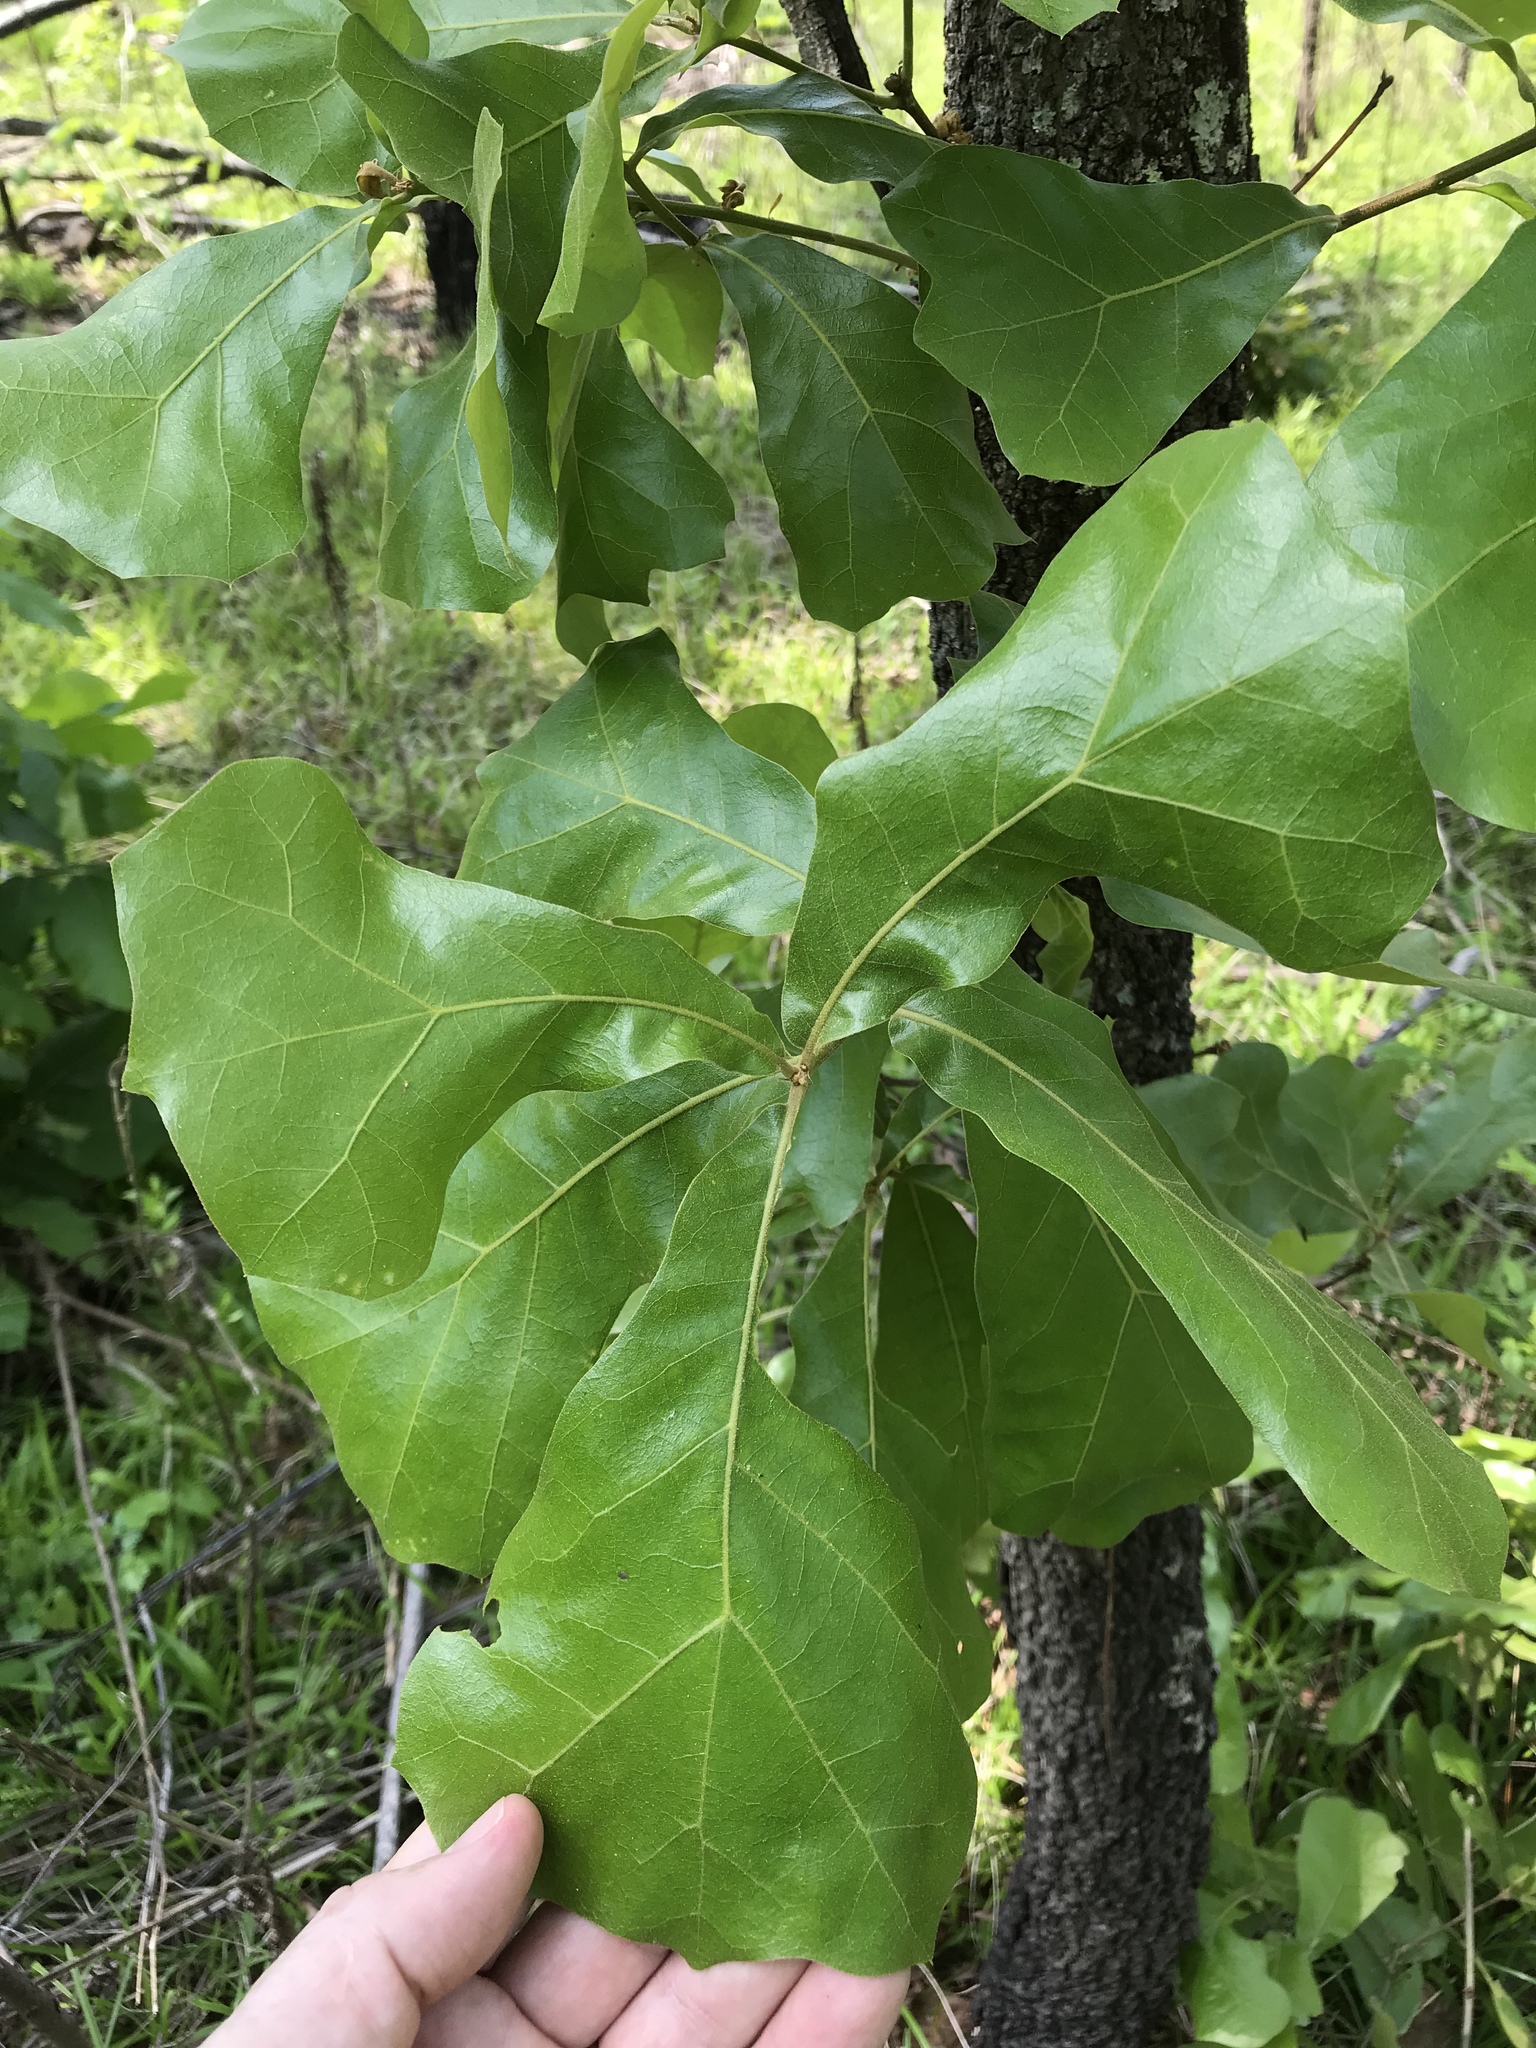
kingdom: Plantae
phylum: Tracheophyta
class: Magnoliopsida
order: Fagales
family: Fagaceae
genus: Quercus
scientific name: Quercus marilandica
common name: Blackjack oak
